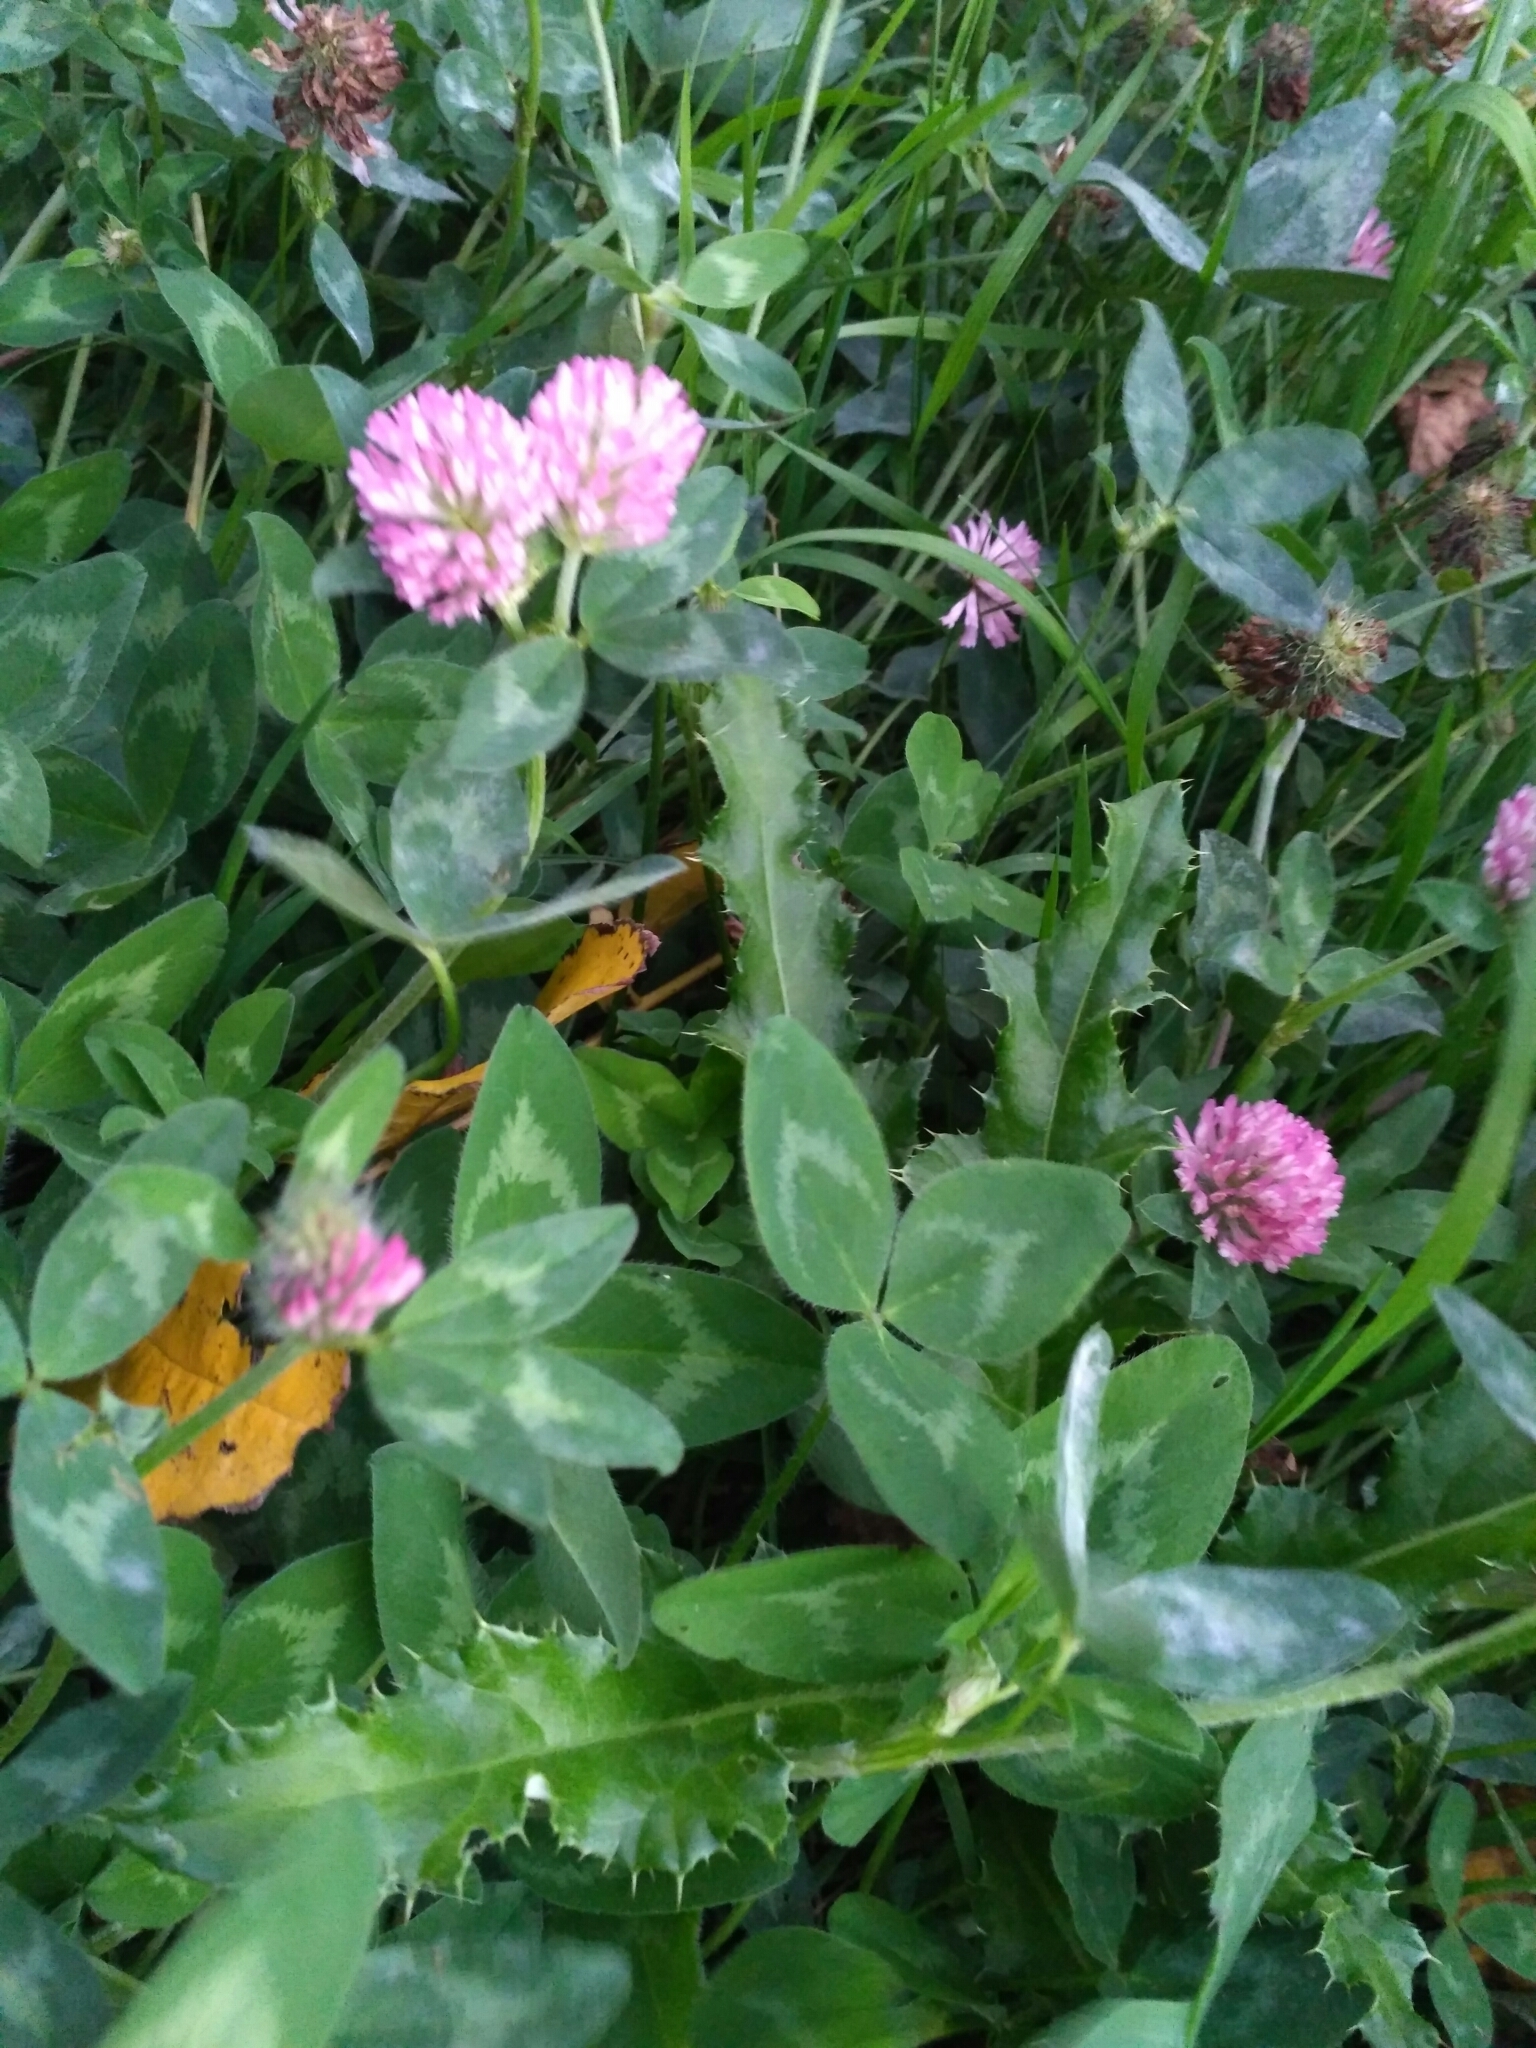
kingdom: Plantae
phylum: Tracheophyta
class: Magnoliopsida
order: Fabales
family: Fabaceae
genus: Trifolium
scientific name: Trifolium pratense
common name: Red clover
